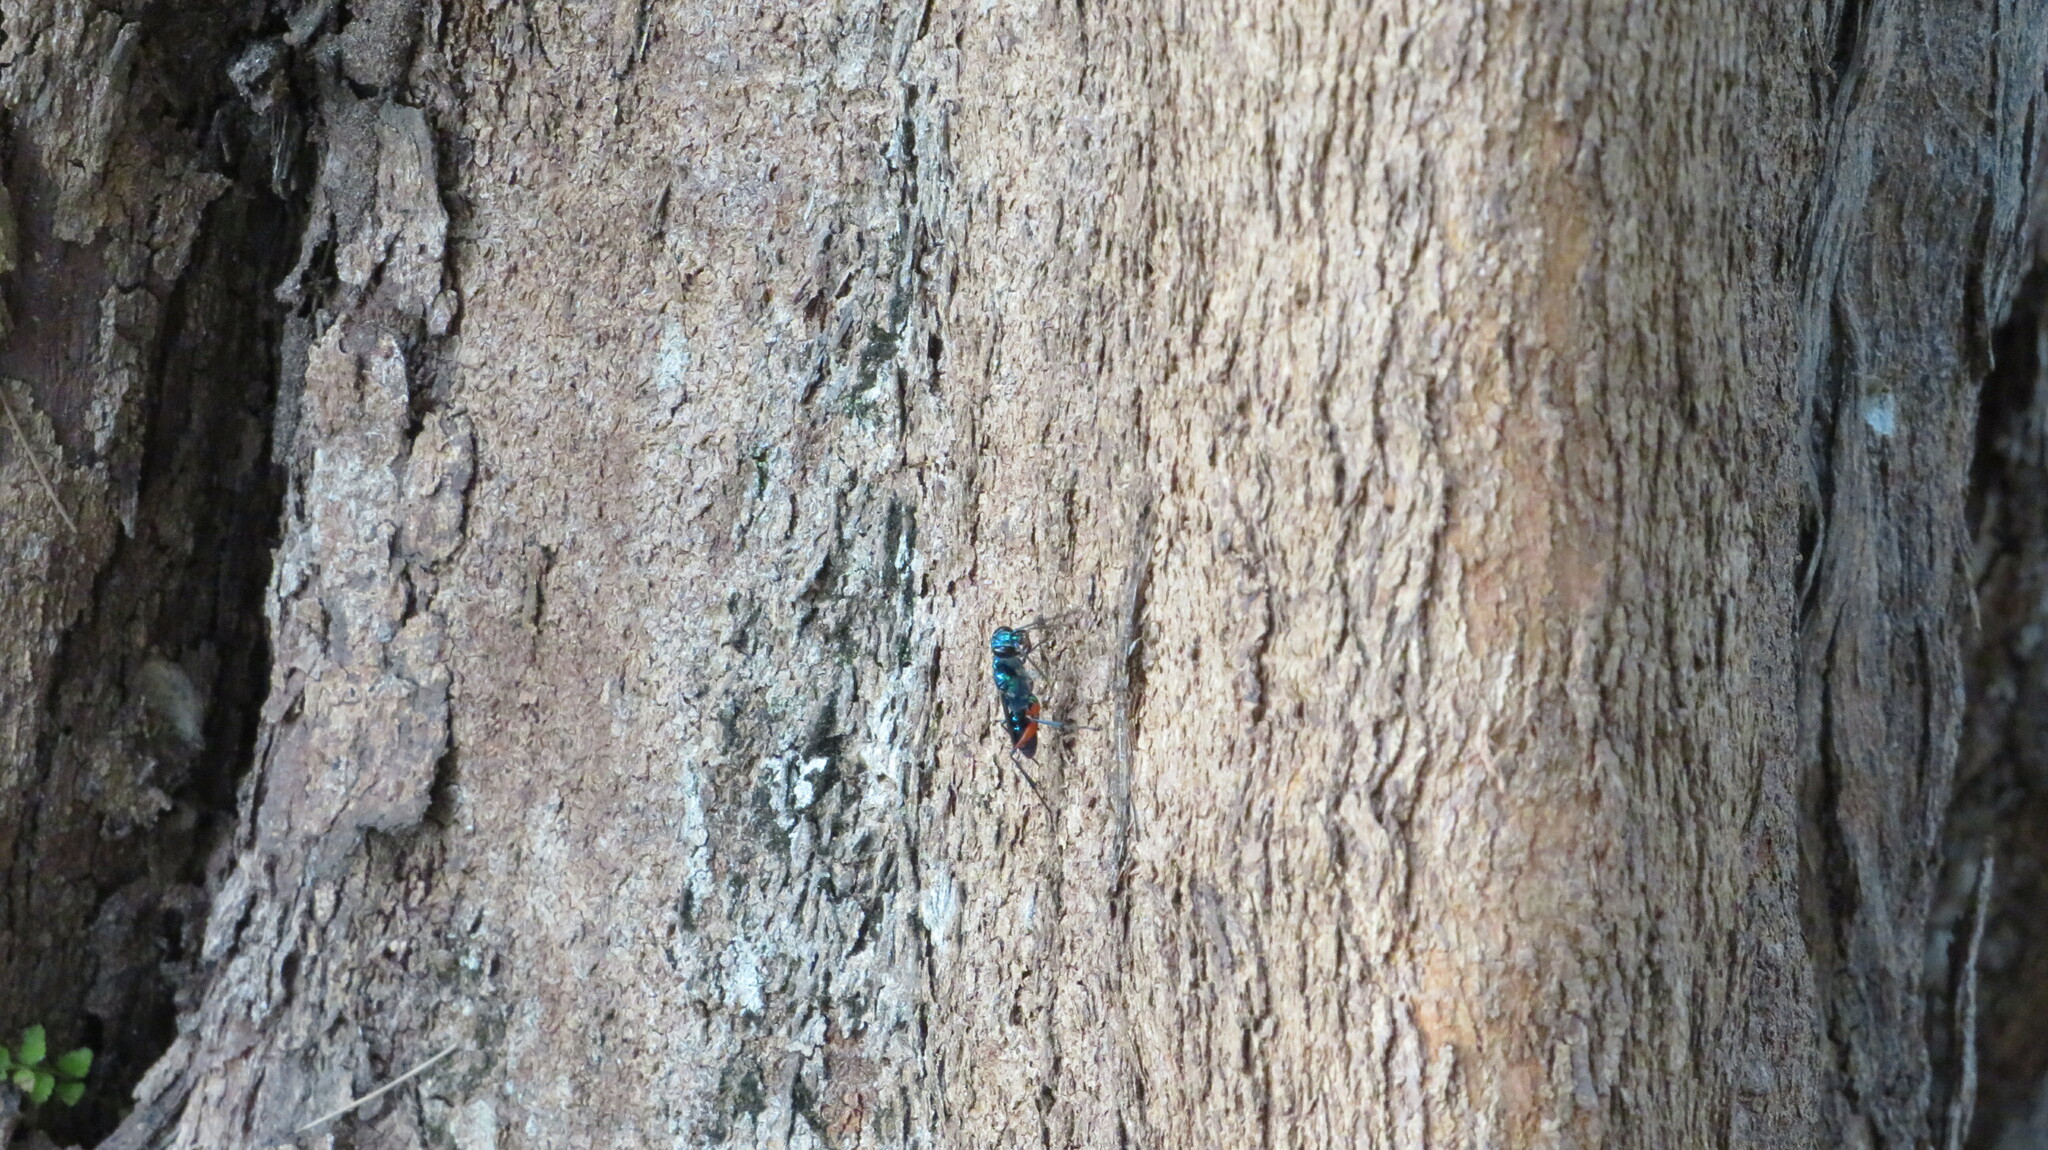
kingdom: Animalia
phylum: Arthropoda
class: Insecta
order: Hymenoptera
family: Ampulicidae
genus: Ampulex
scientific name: Ampulex compressa
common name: Emerald cockroach wasp
